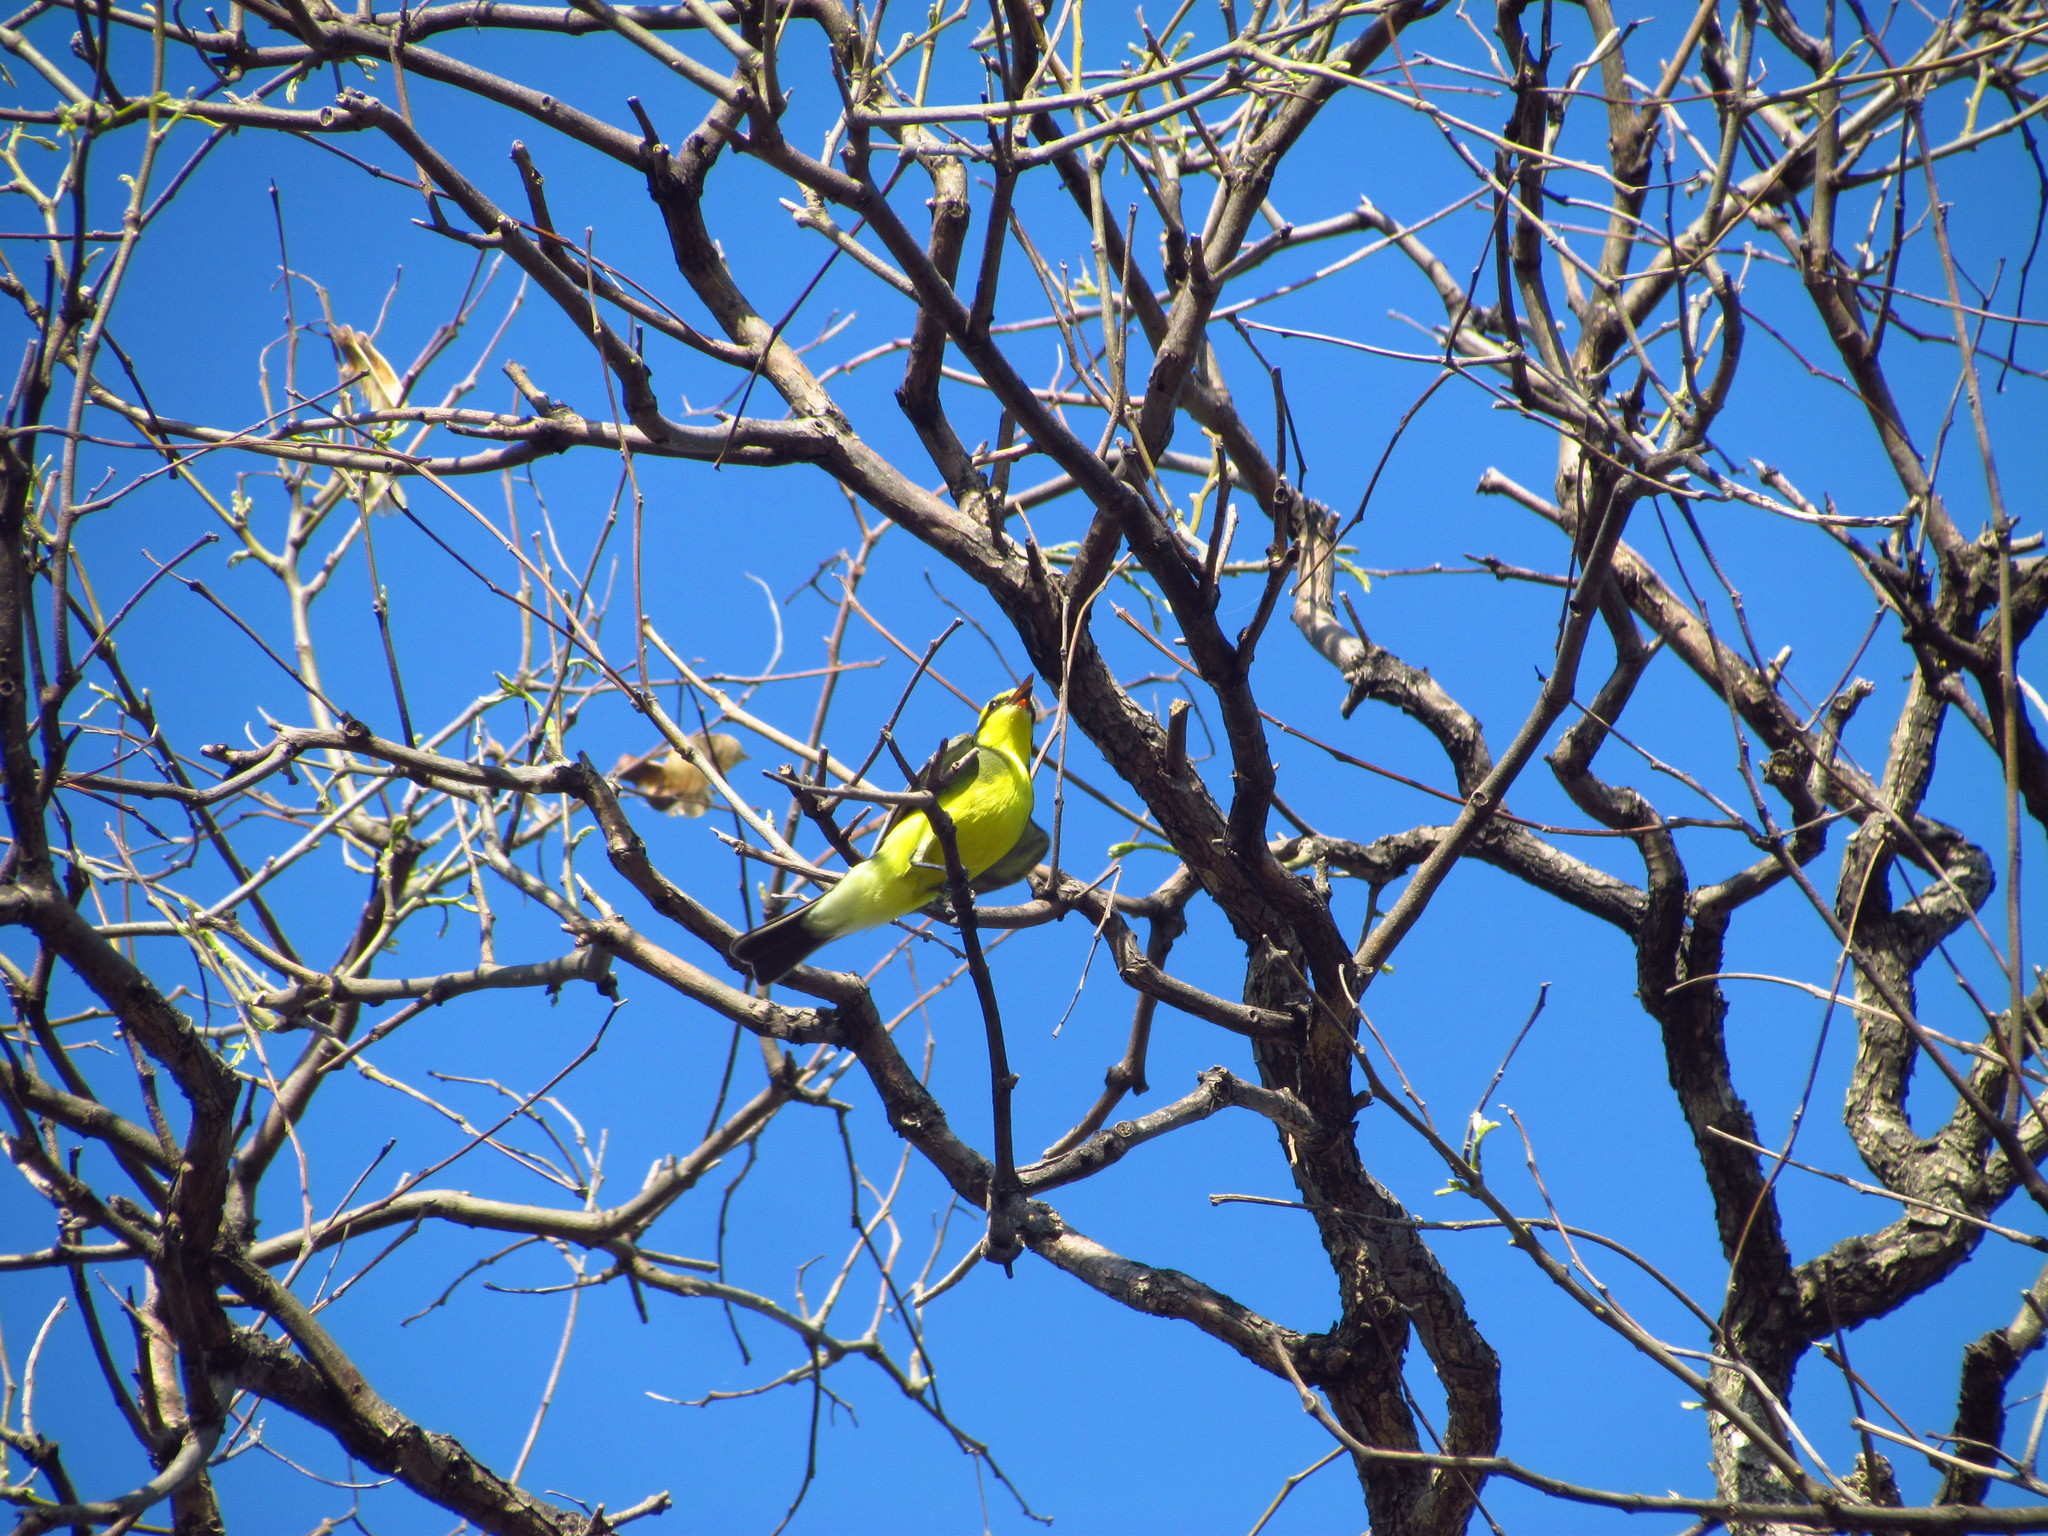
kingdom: Animalia
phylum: Chordata
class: Aves
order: Passeriformes
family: Tyrannidae
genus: Satrapa
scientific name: Satrapa icterophrys
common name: Yellow-browed tyrant
